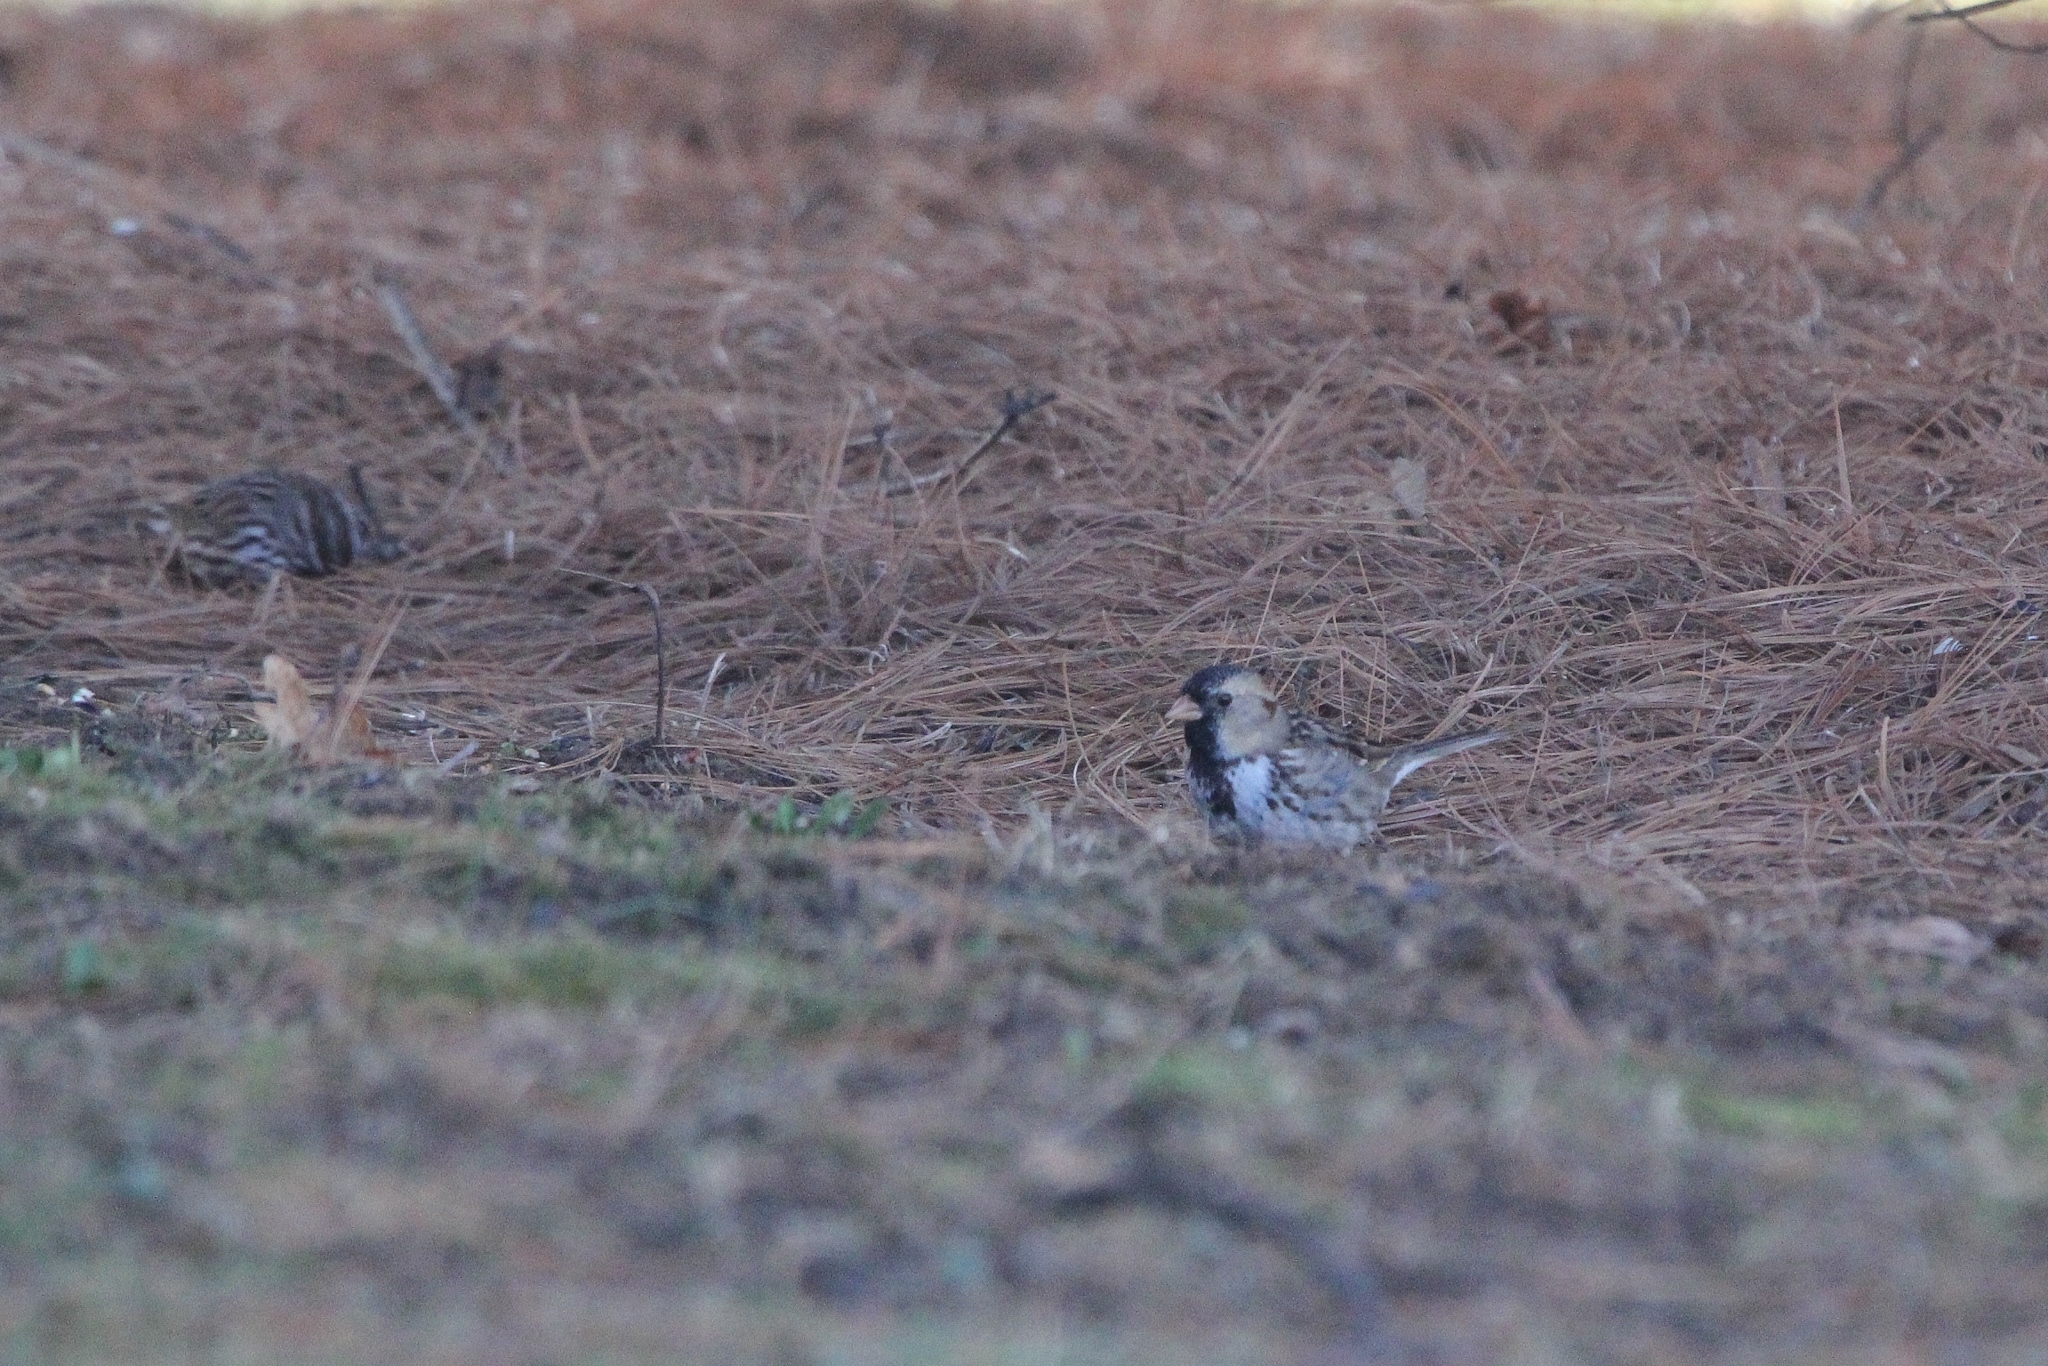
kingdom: Animalia
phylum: Chordata
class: Aves
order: Passeriformes
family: Passerellidae
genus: Zonotrichia
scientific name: Zonotrichia querula
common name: Harris's sparrow
